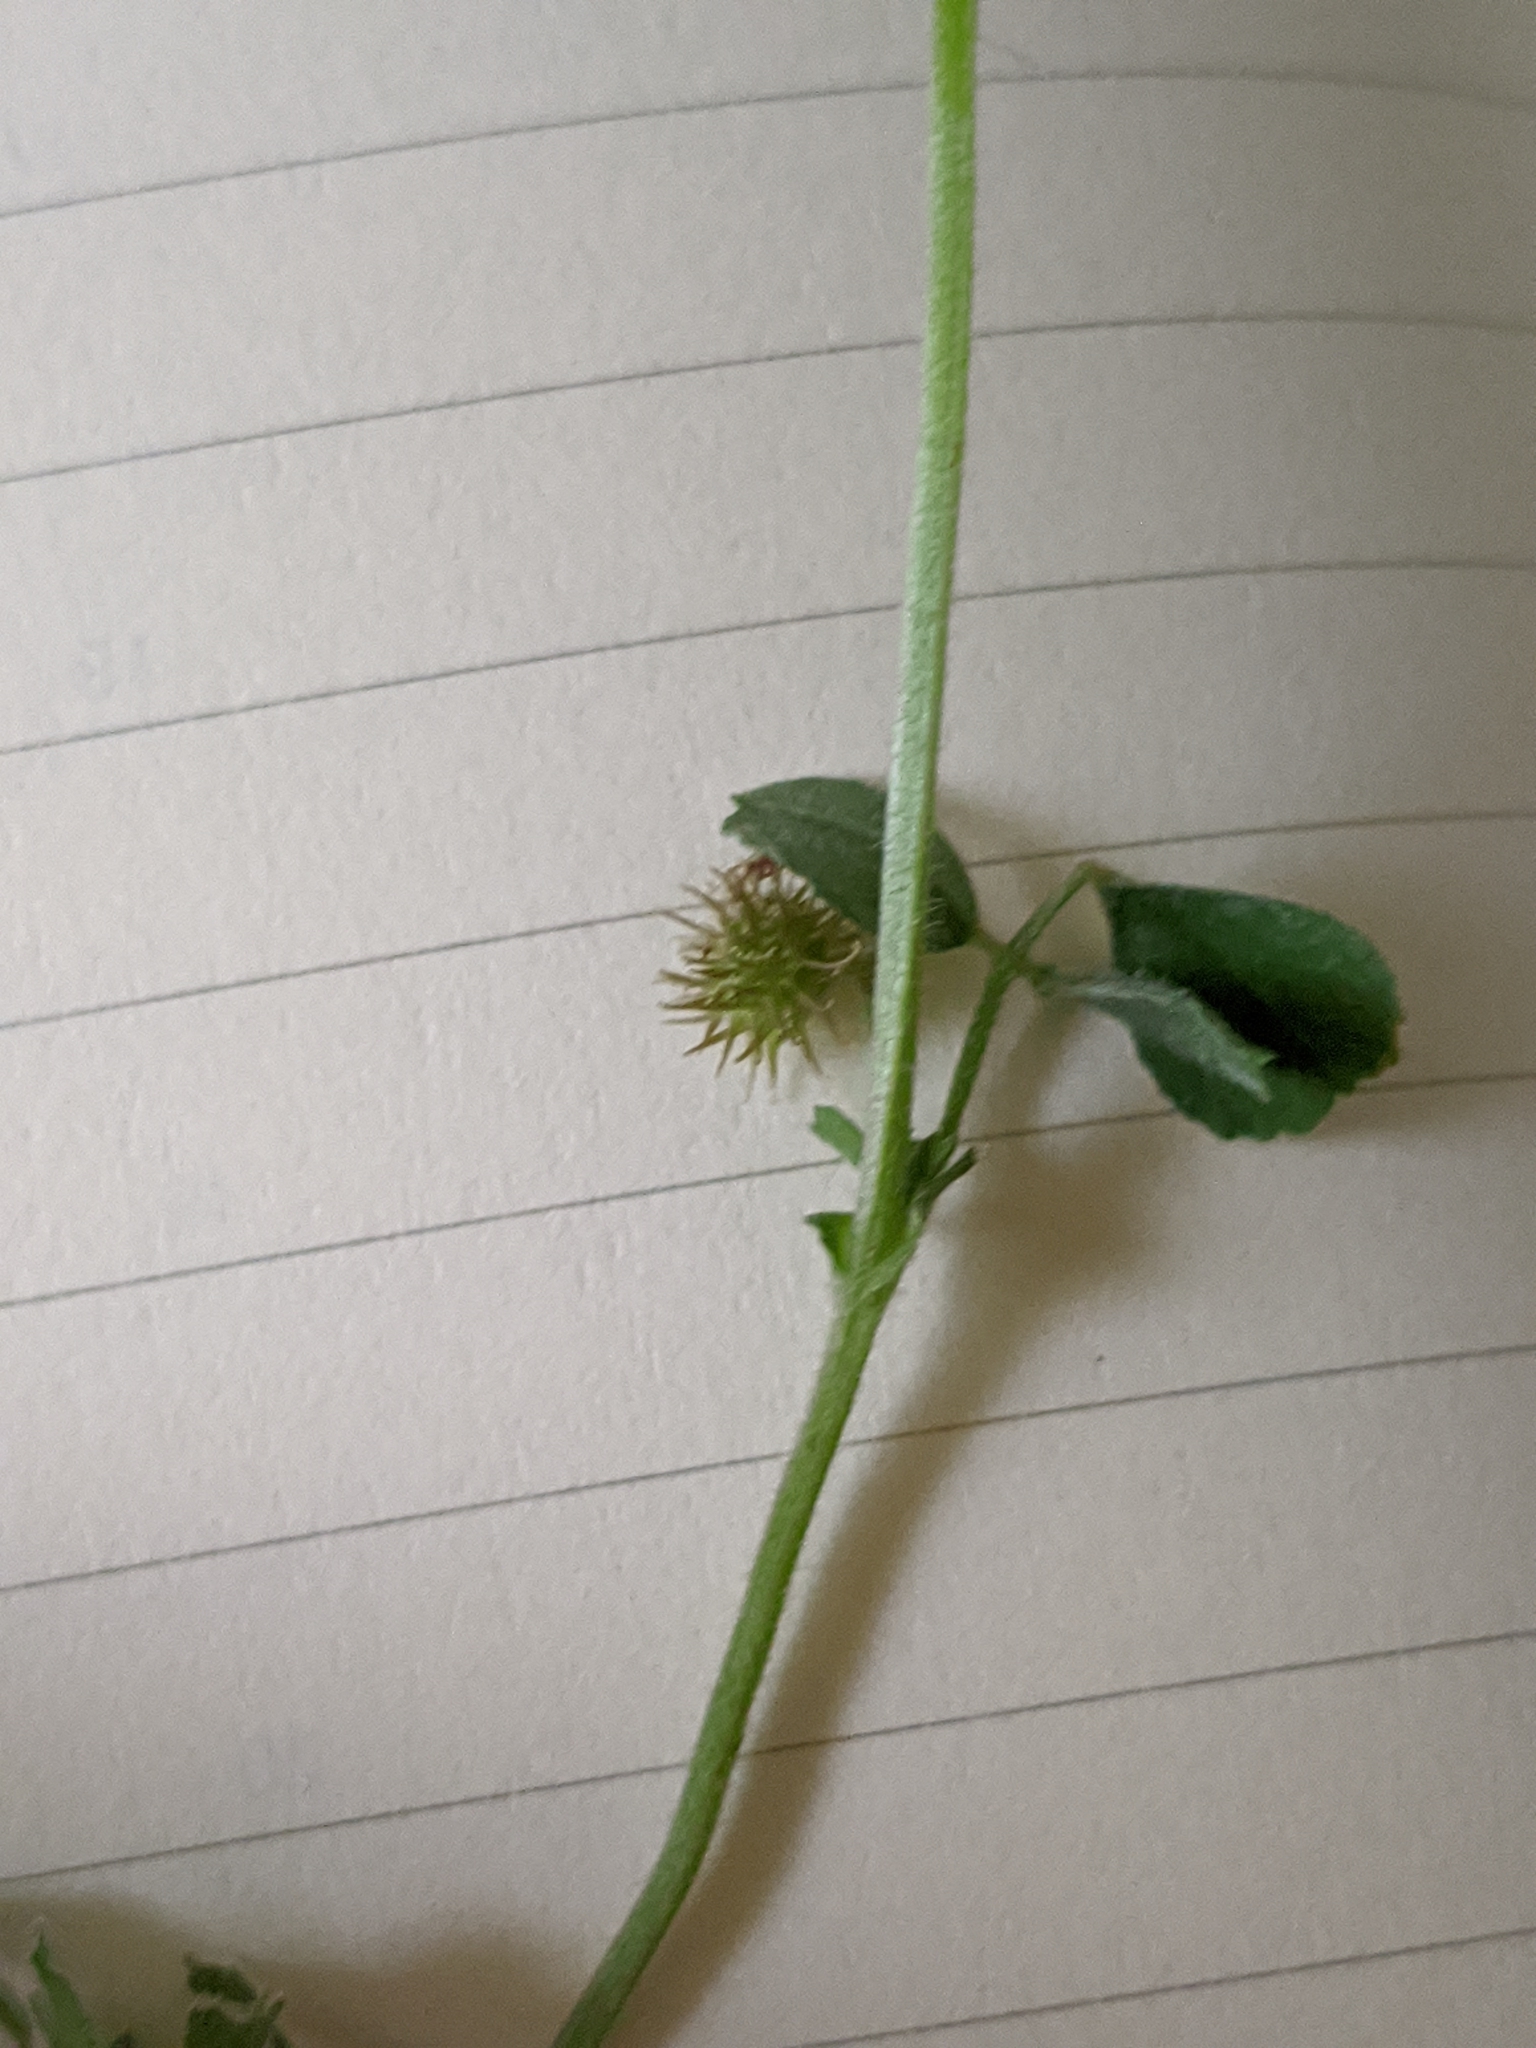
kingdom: Plantae
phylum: Tracheophyta
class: Magnoliopsida
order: Fabales
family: Fabaceae
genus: Medicago
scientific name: Medicago minima
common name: Little bur-clover
